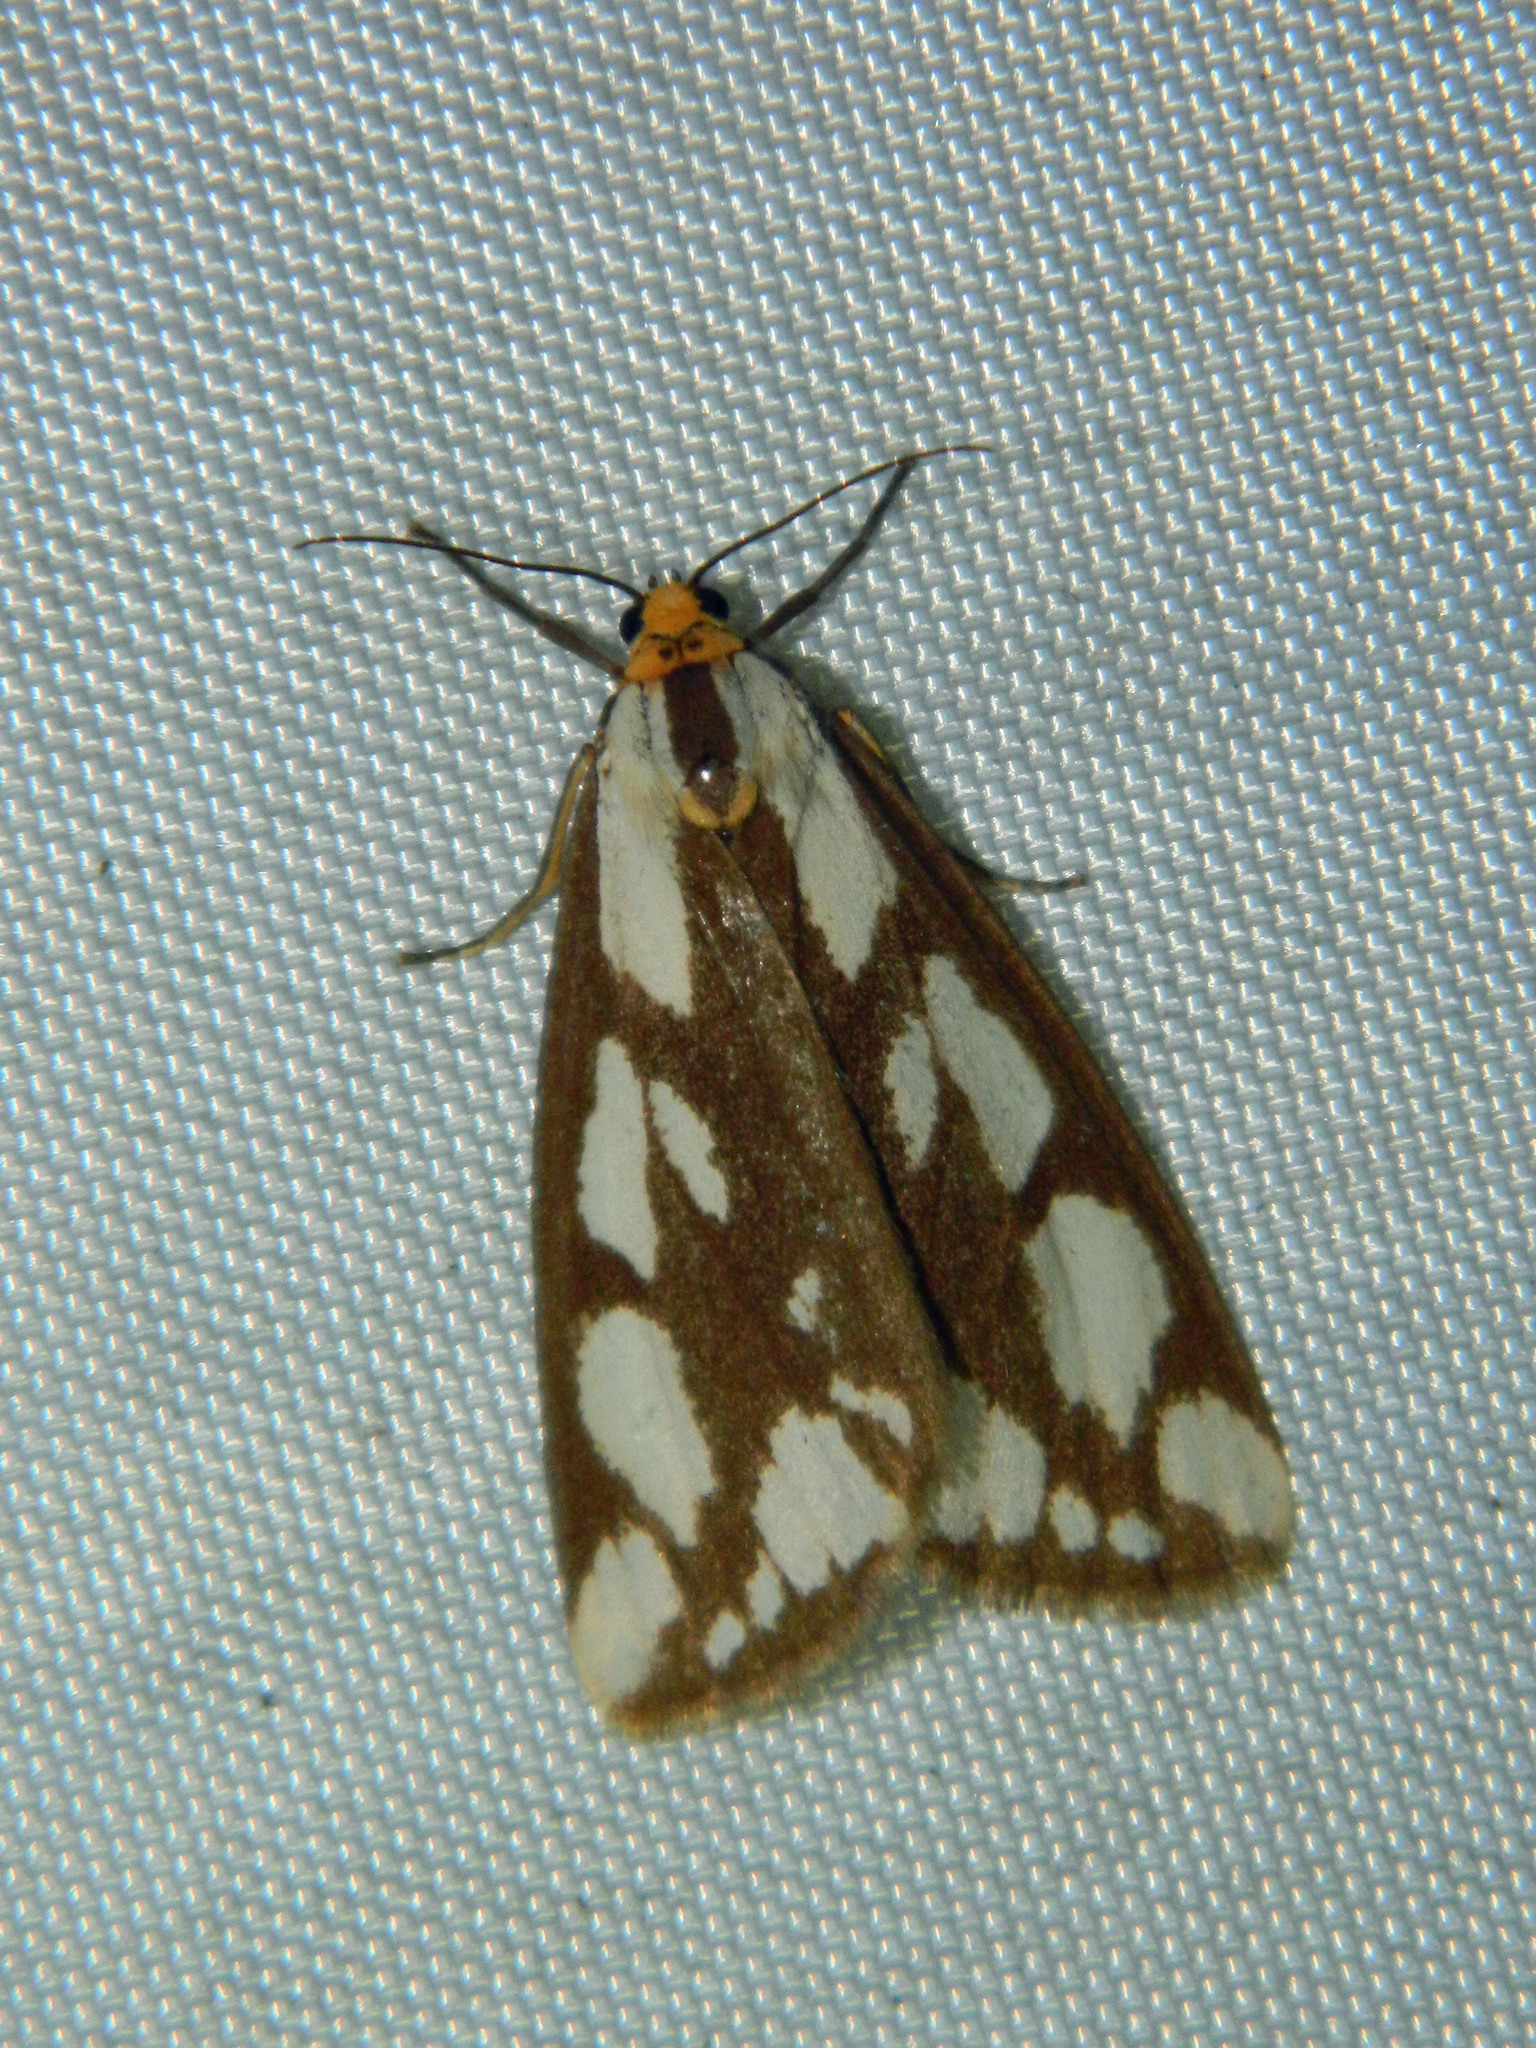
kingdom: Animalia
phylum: Arthropoda
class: Insecta
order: Lepidoptera
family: Erebidae
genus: Haploa
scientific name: Haploa confusa
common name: Confused haploa moth
